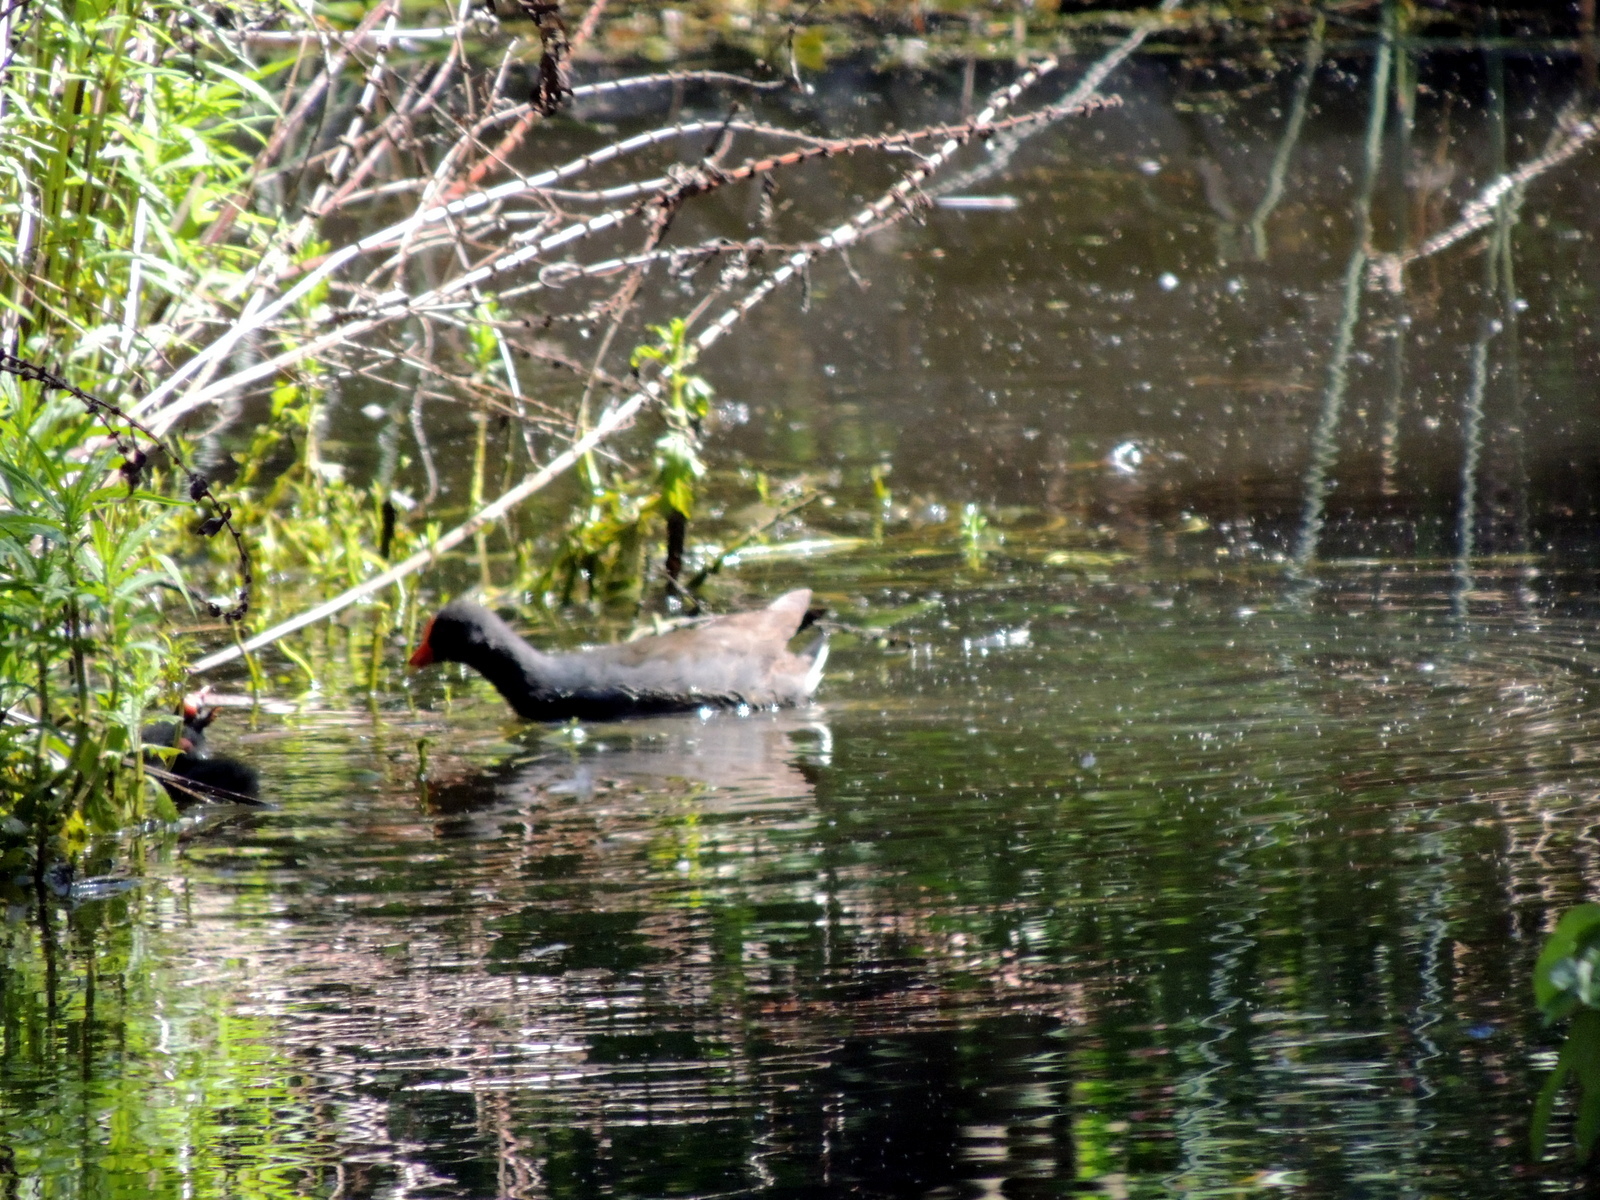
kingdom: Animalia
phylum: Chordata
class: Aves
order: Gruiformes
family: Rallidae
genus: Gallinula
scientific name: Gallinula tenebrosa
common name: Dusky moorhen
